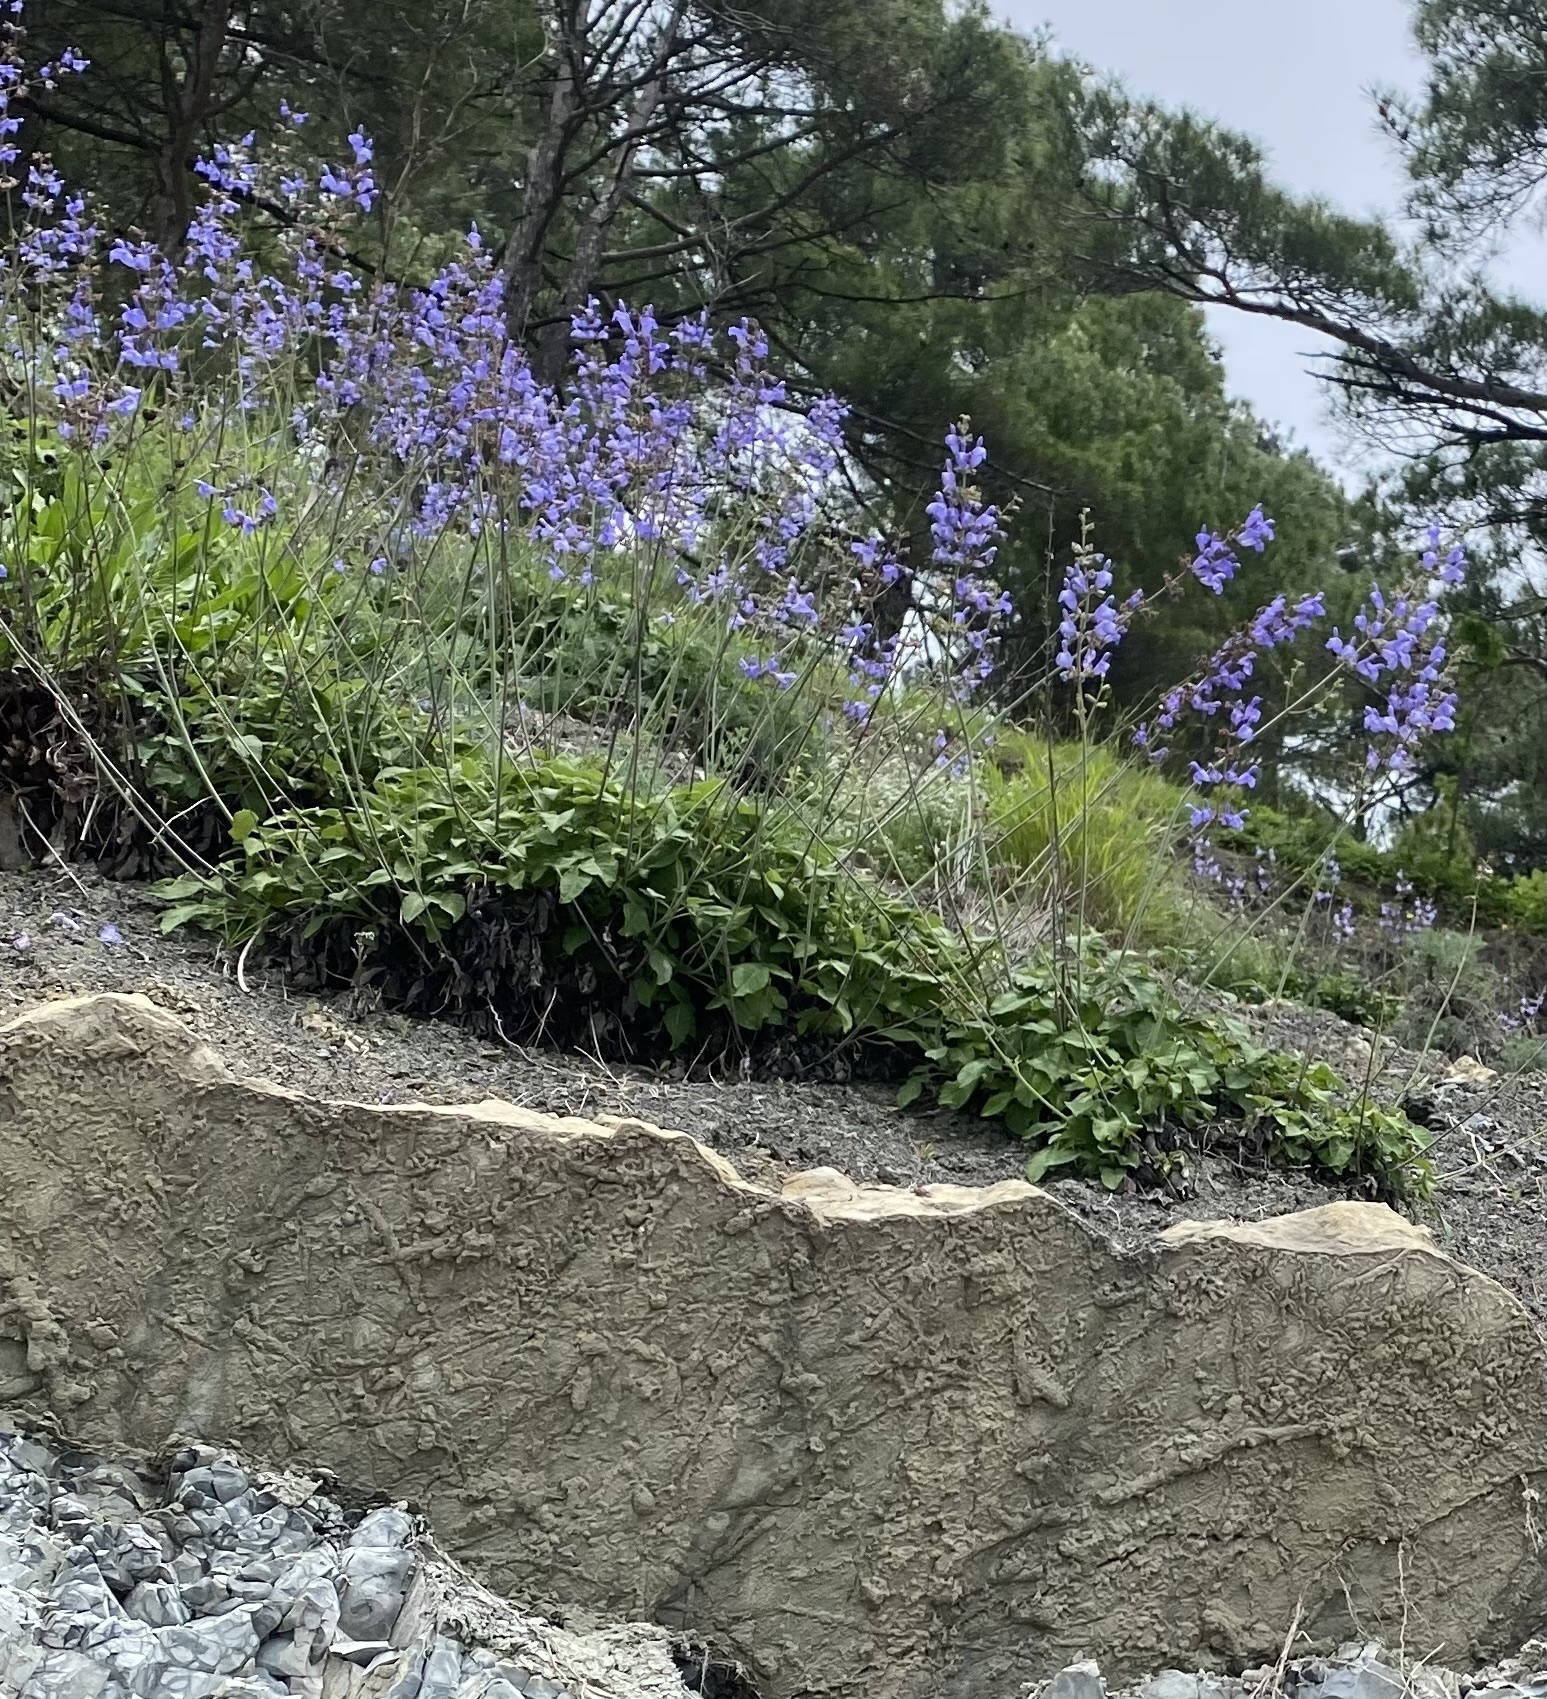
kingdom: Plantae
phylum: Tracheophyta
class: Magnoliopsida
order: Lamiales
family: Lamiaceae
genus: Salvia
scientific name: Salvia ringens
